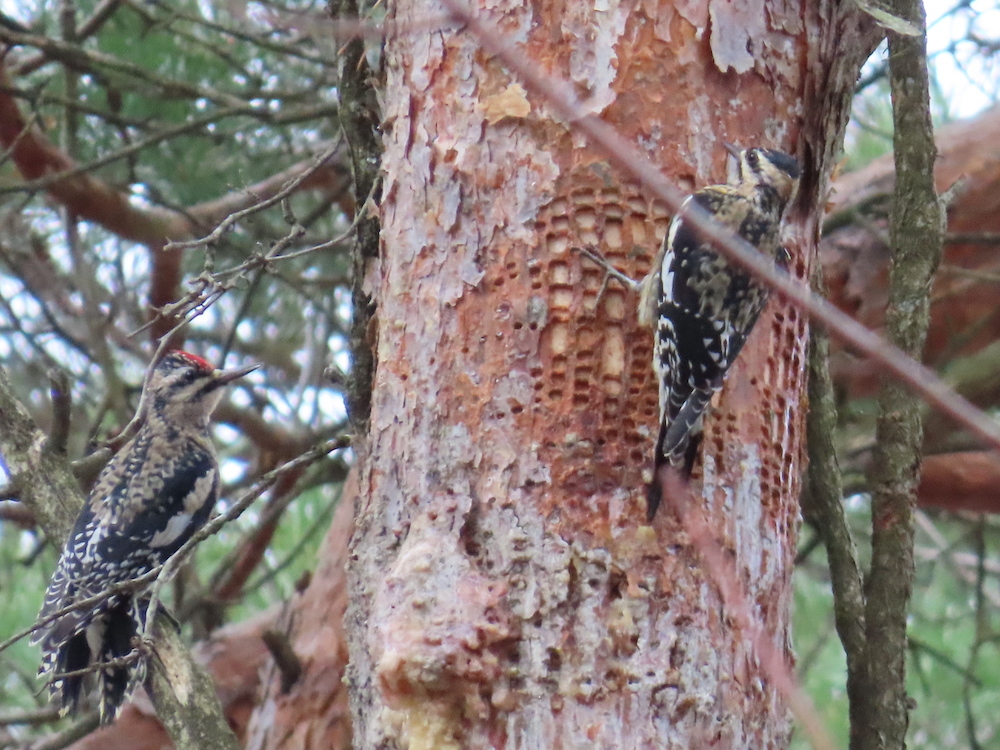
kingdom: Animalia
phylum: Chordata
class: Aves
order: Piciformes
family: Picidae
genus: Sphyrapicus
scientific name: Sphyrapicus varius
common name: Yellow-bellied sapsucker
